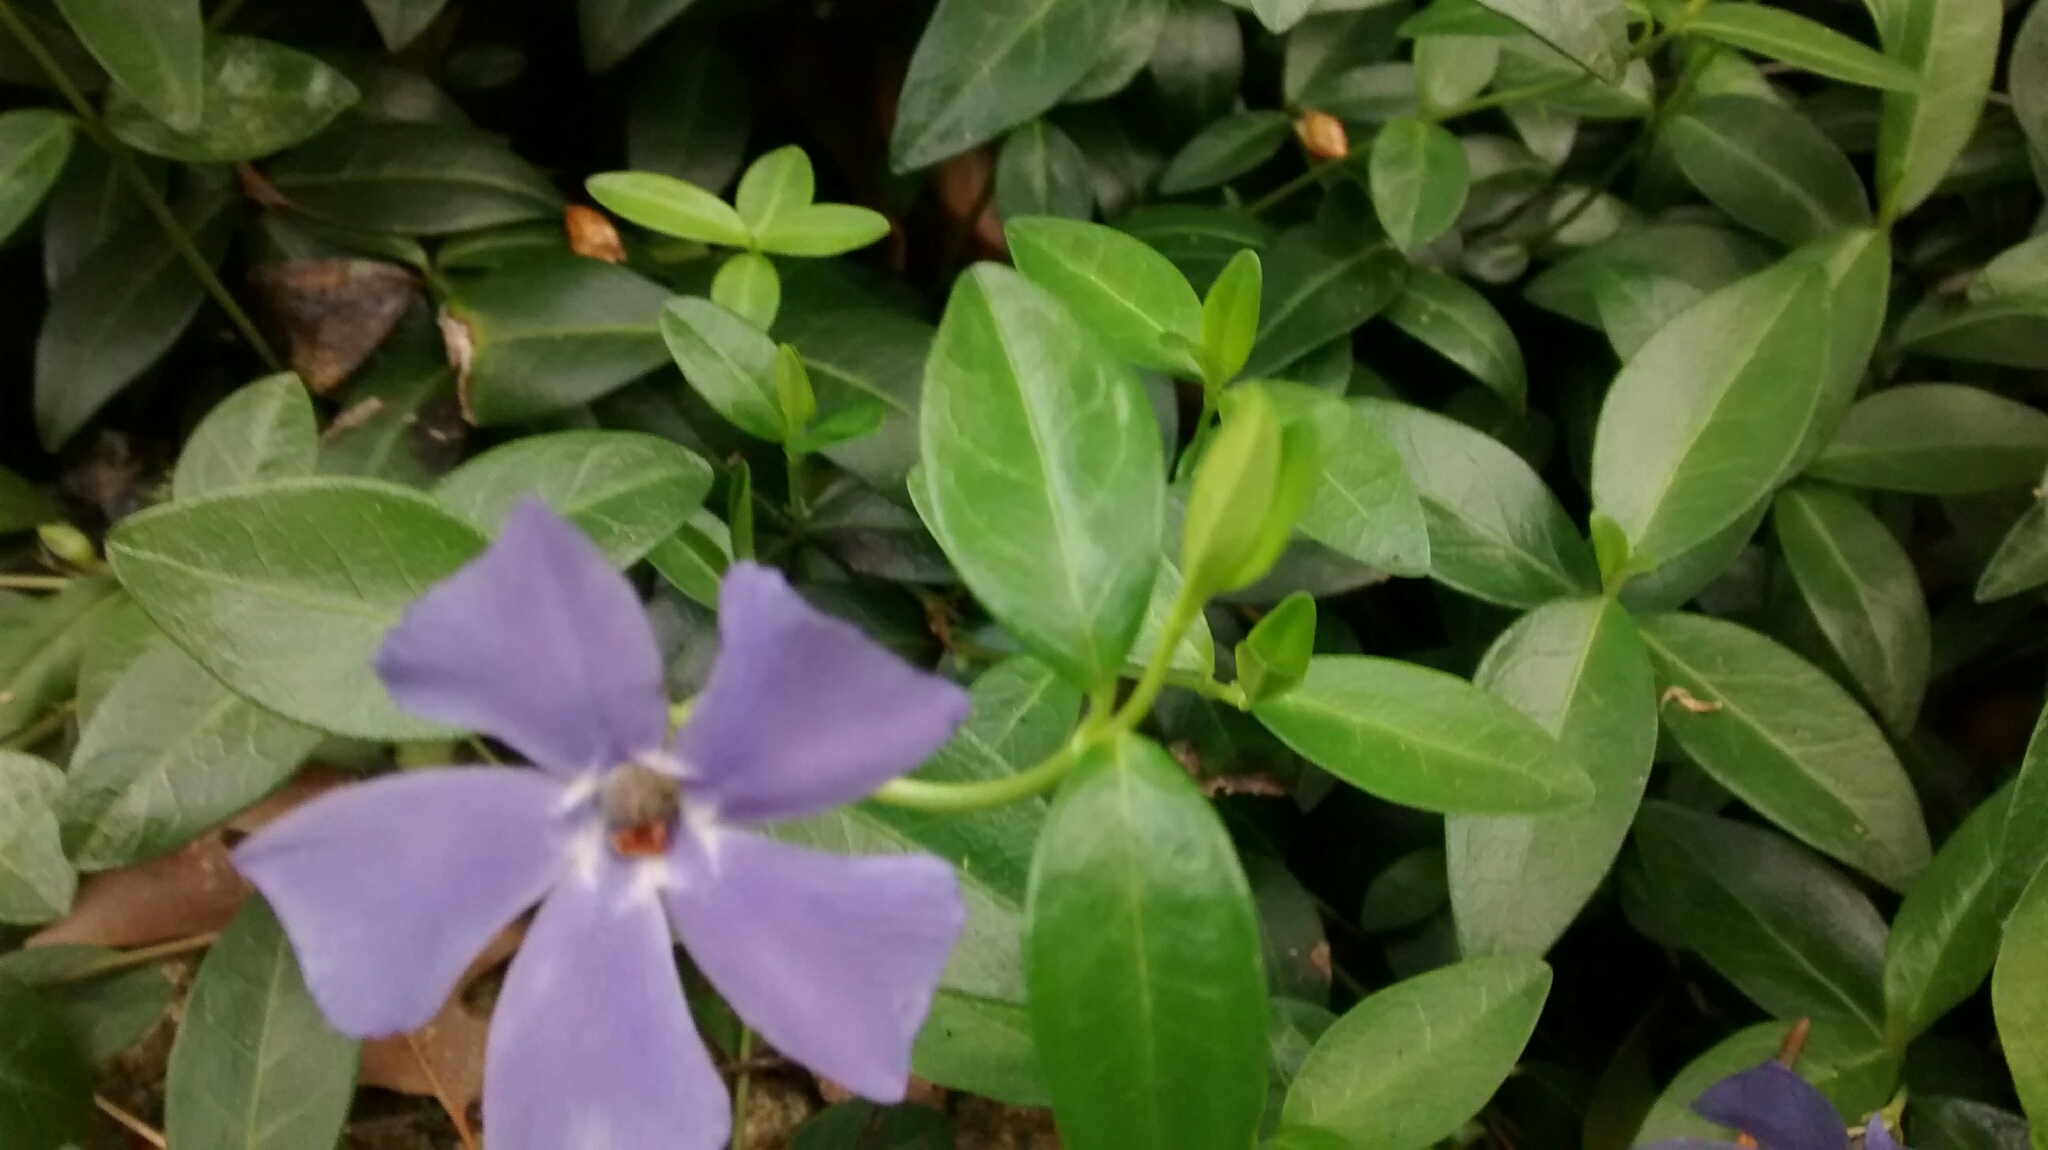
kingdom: Plantae
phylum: Tracheophyta
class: Magnoliopsida
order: Gentianales
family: Apocynaceae
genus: Vinca
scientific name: Vinca minor
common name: Lesser periwinkle
